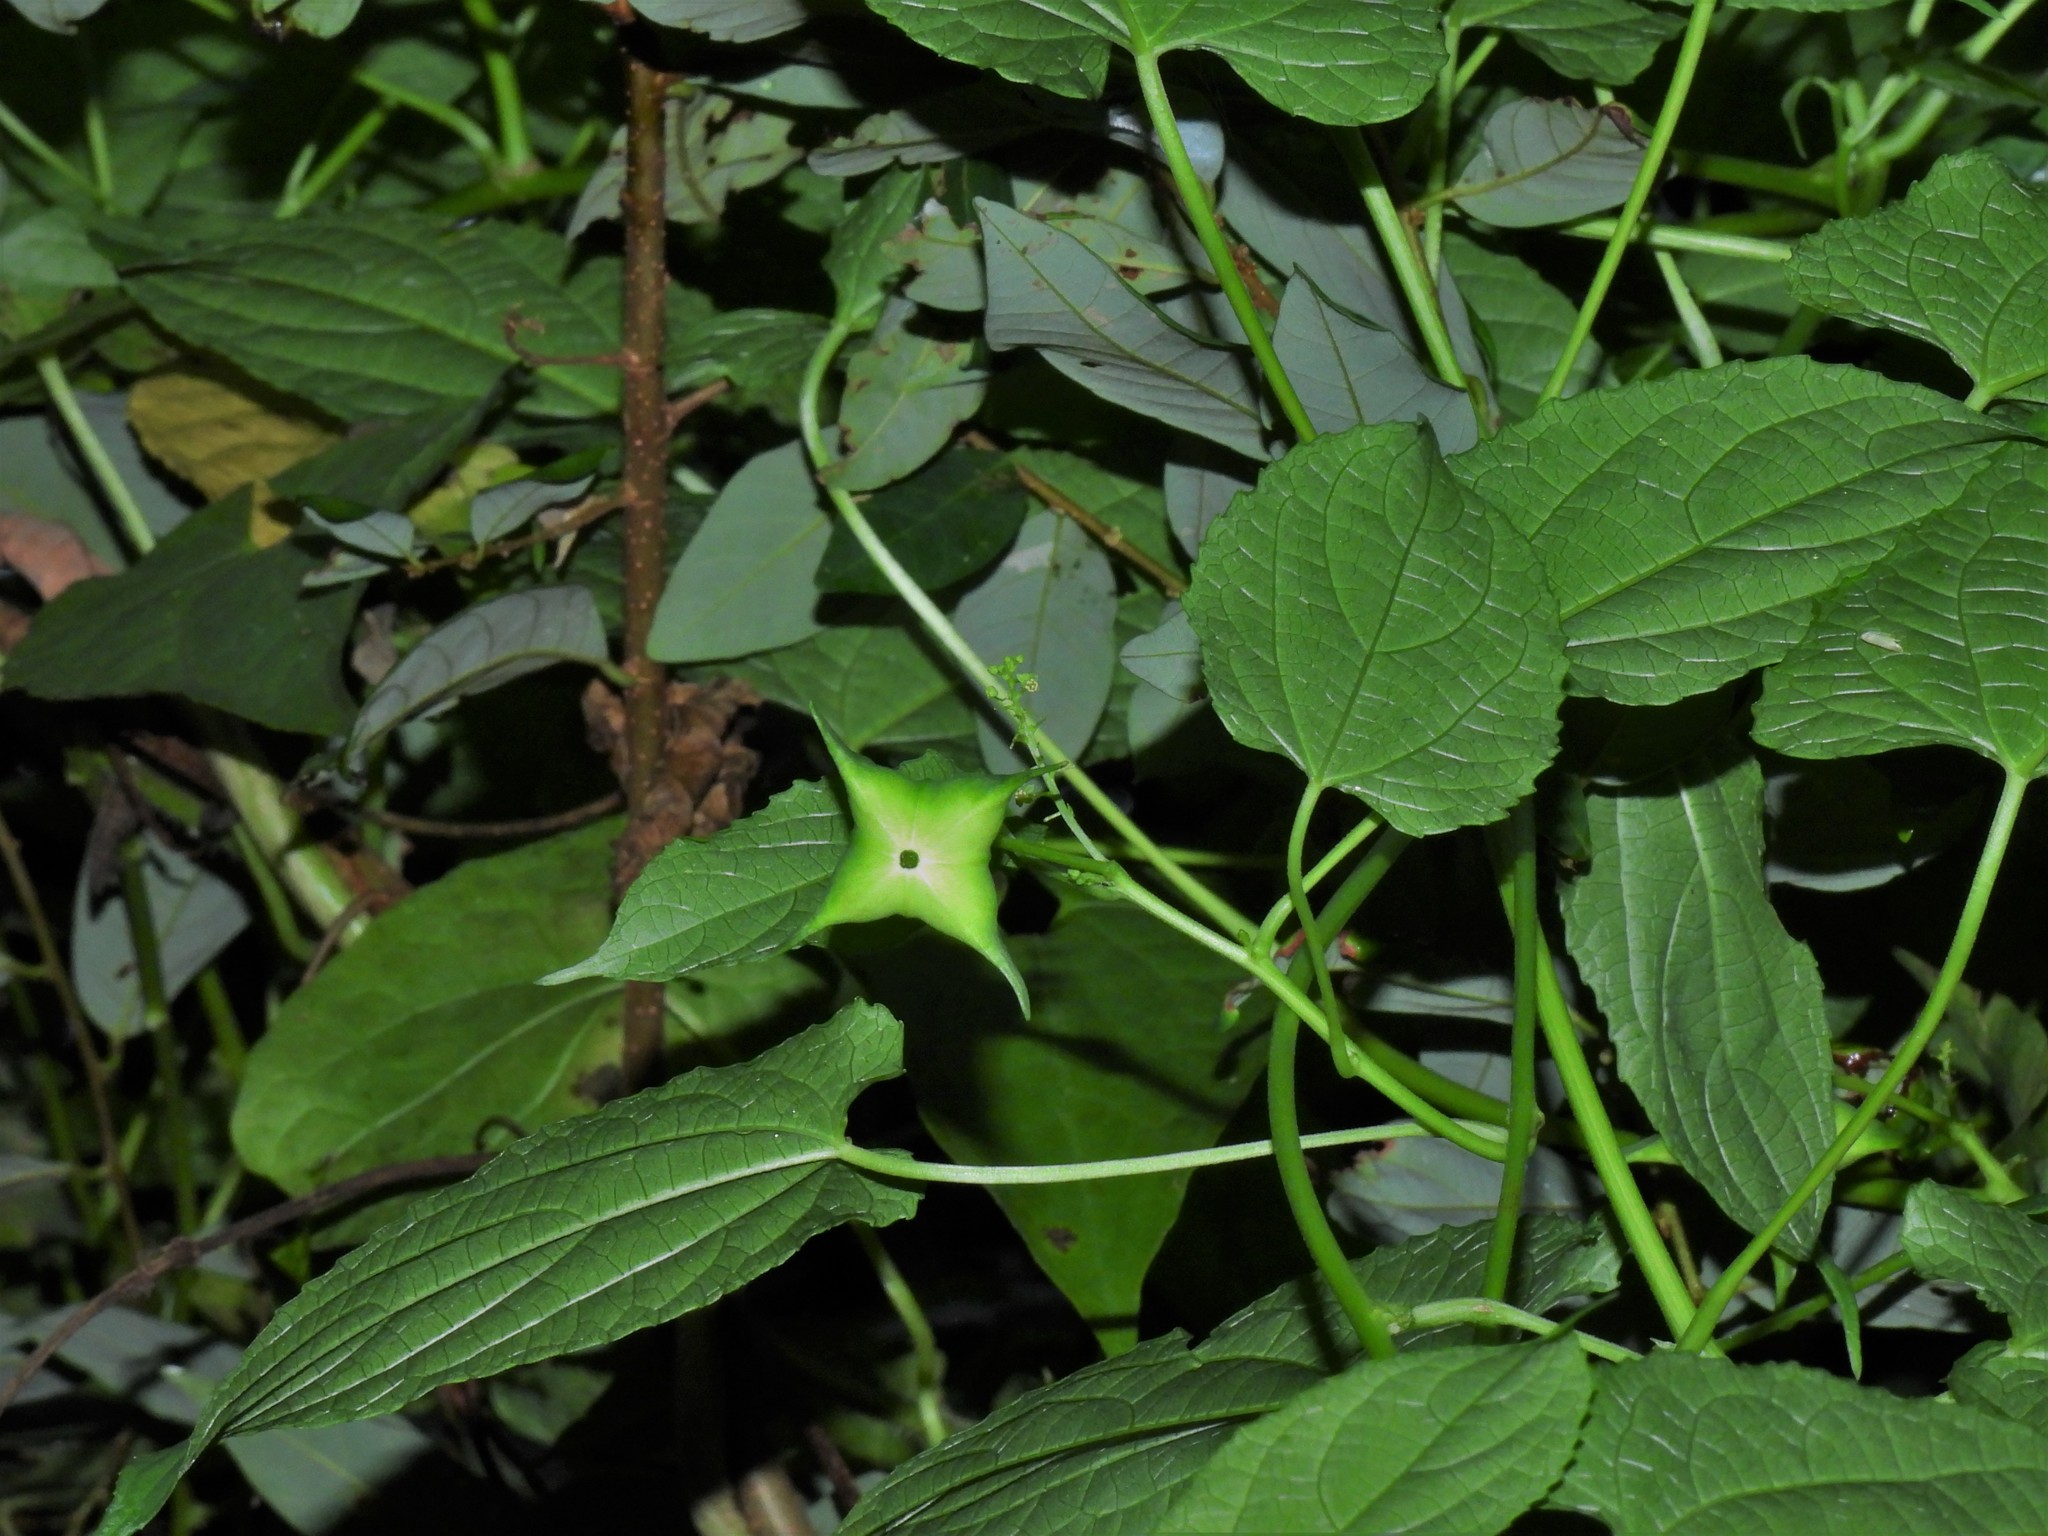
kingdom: Plantae
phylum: Tracheophyta
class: Magnoliopsida
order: Malpighiales
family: Euphorbiaceae
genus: Plukenetia
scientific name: Plukenetia corniculata
